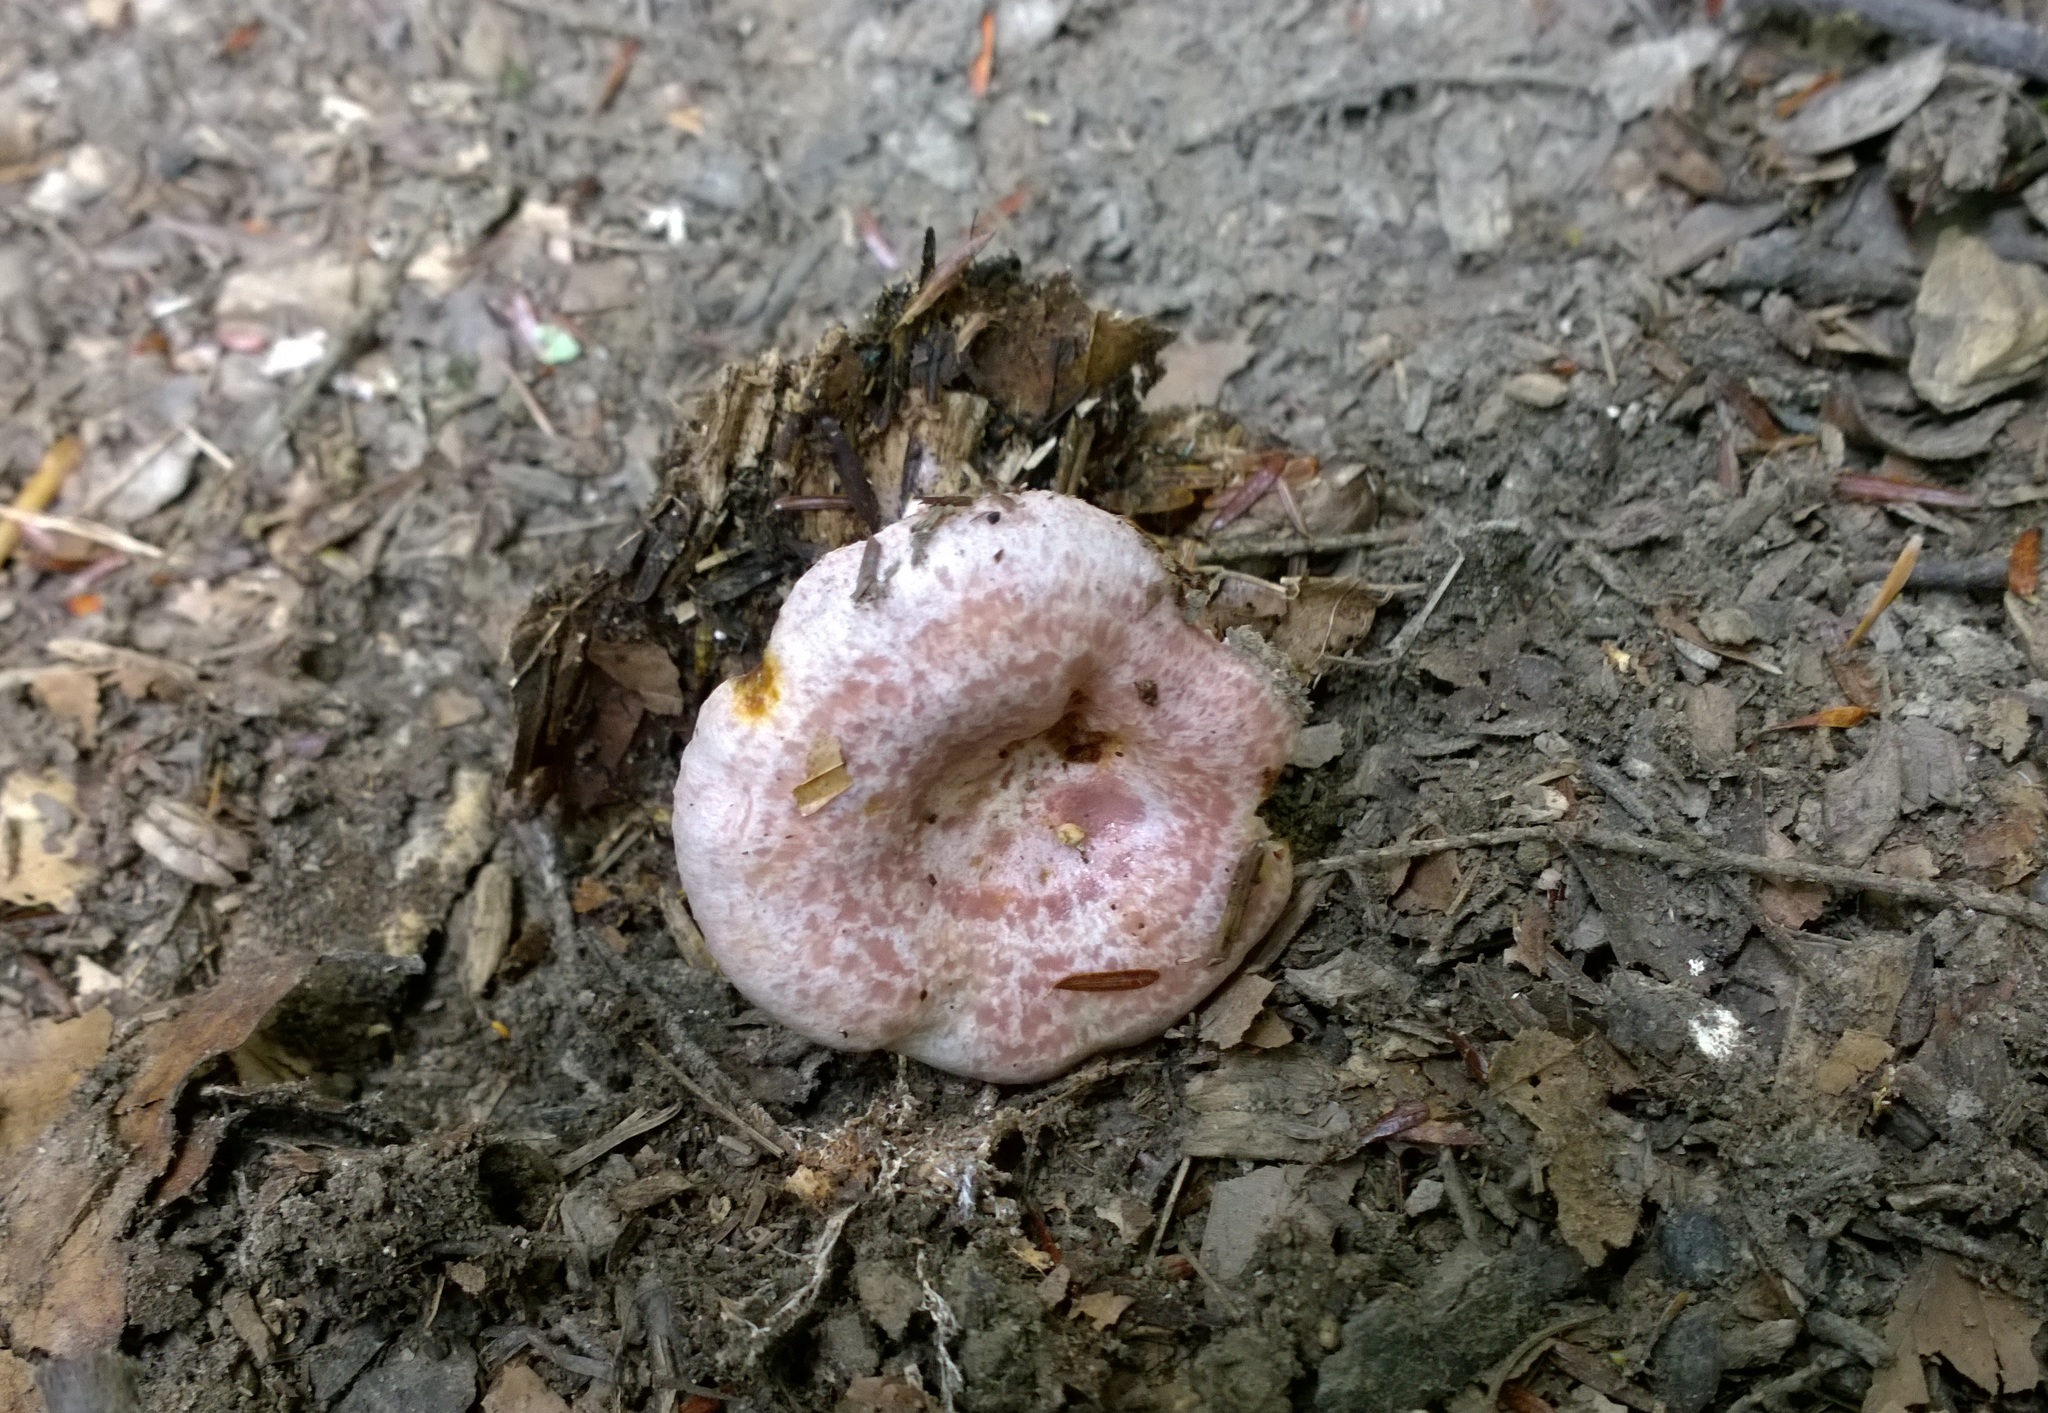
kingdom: Fungi
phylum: Basidiomycota
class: Agaricomycetes
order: Russulales
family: Russulaceae
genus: Lactarius
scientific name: Lactarius subpurpureus
